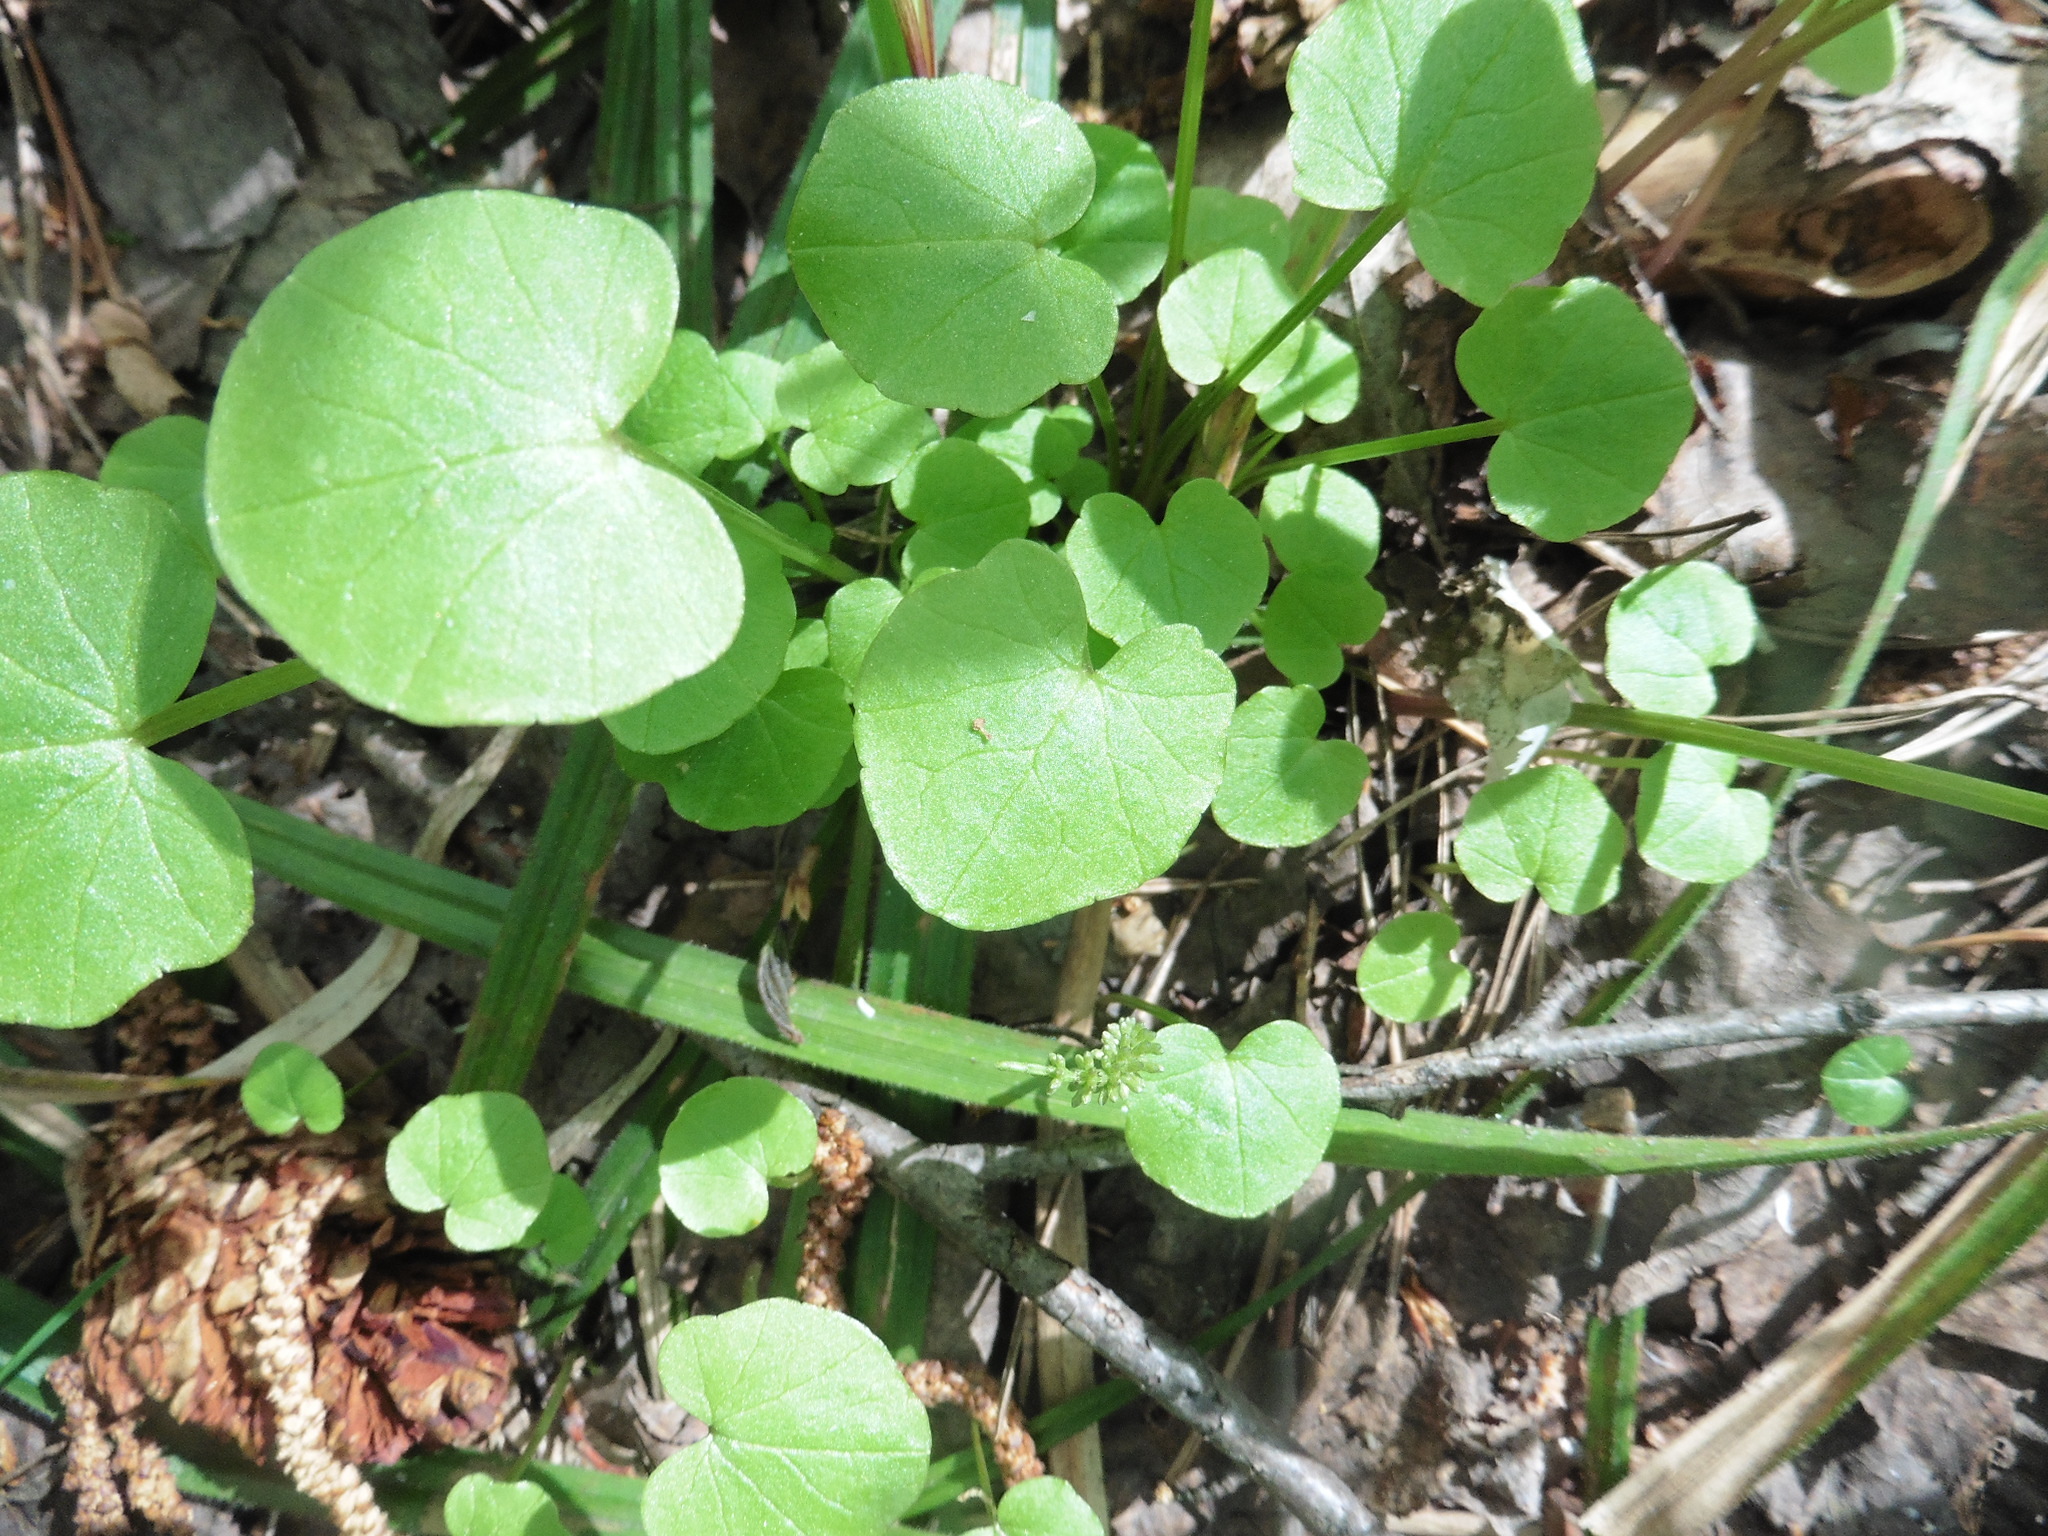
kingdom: Plantae
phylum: Tracheophyta
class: Magnoliopsida
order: Ranunculales
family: Ranunculaceae
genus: Ficaria
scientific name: Ficaria verna
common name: Lesser celandine
